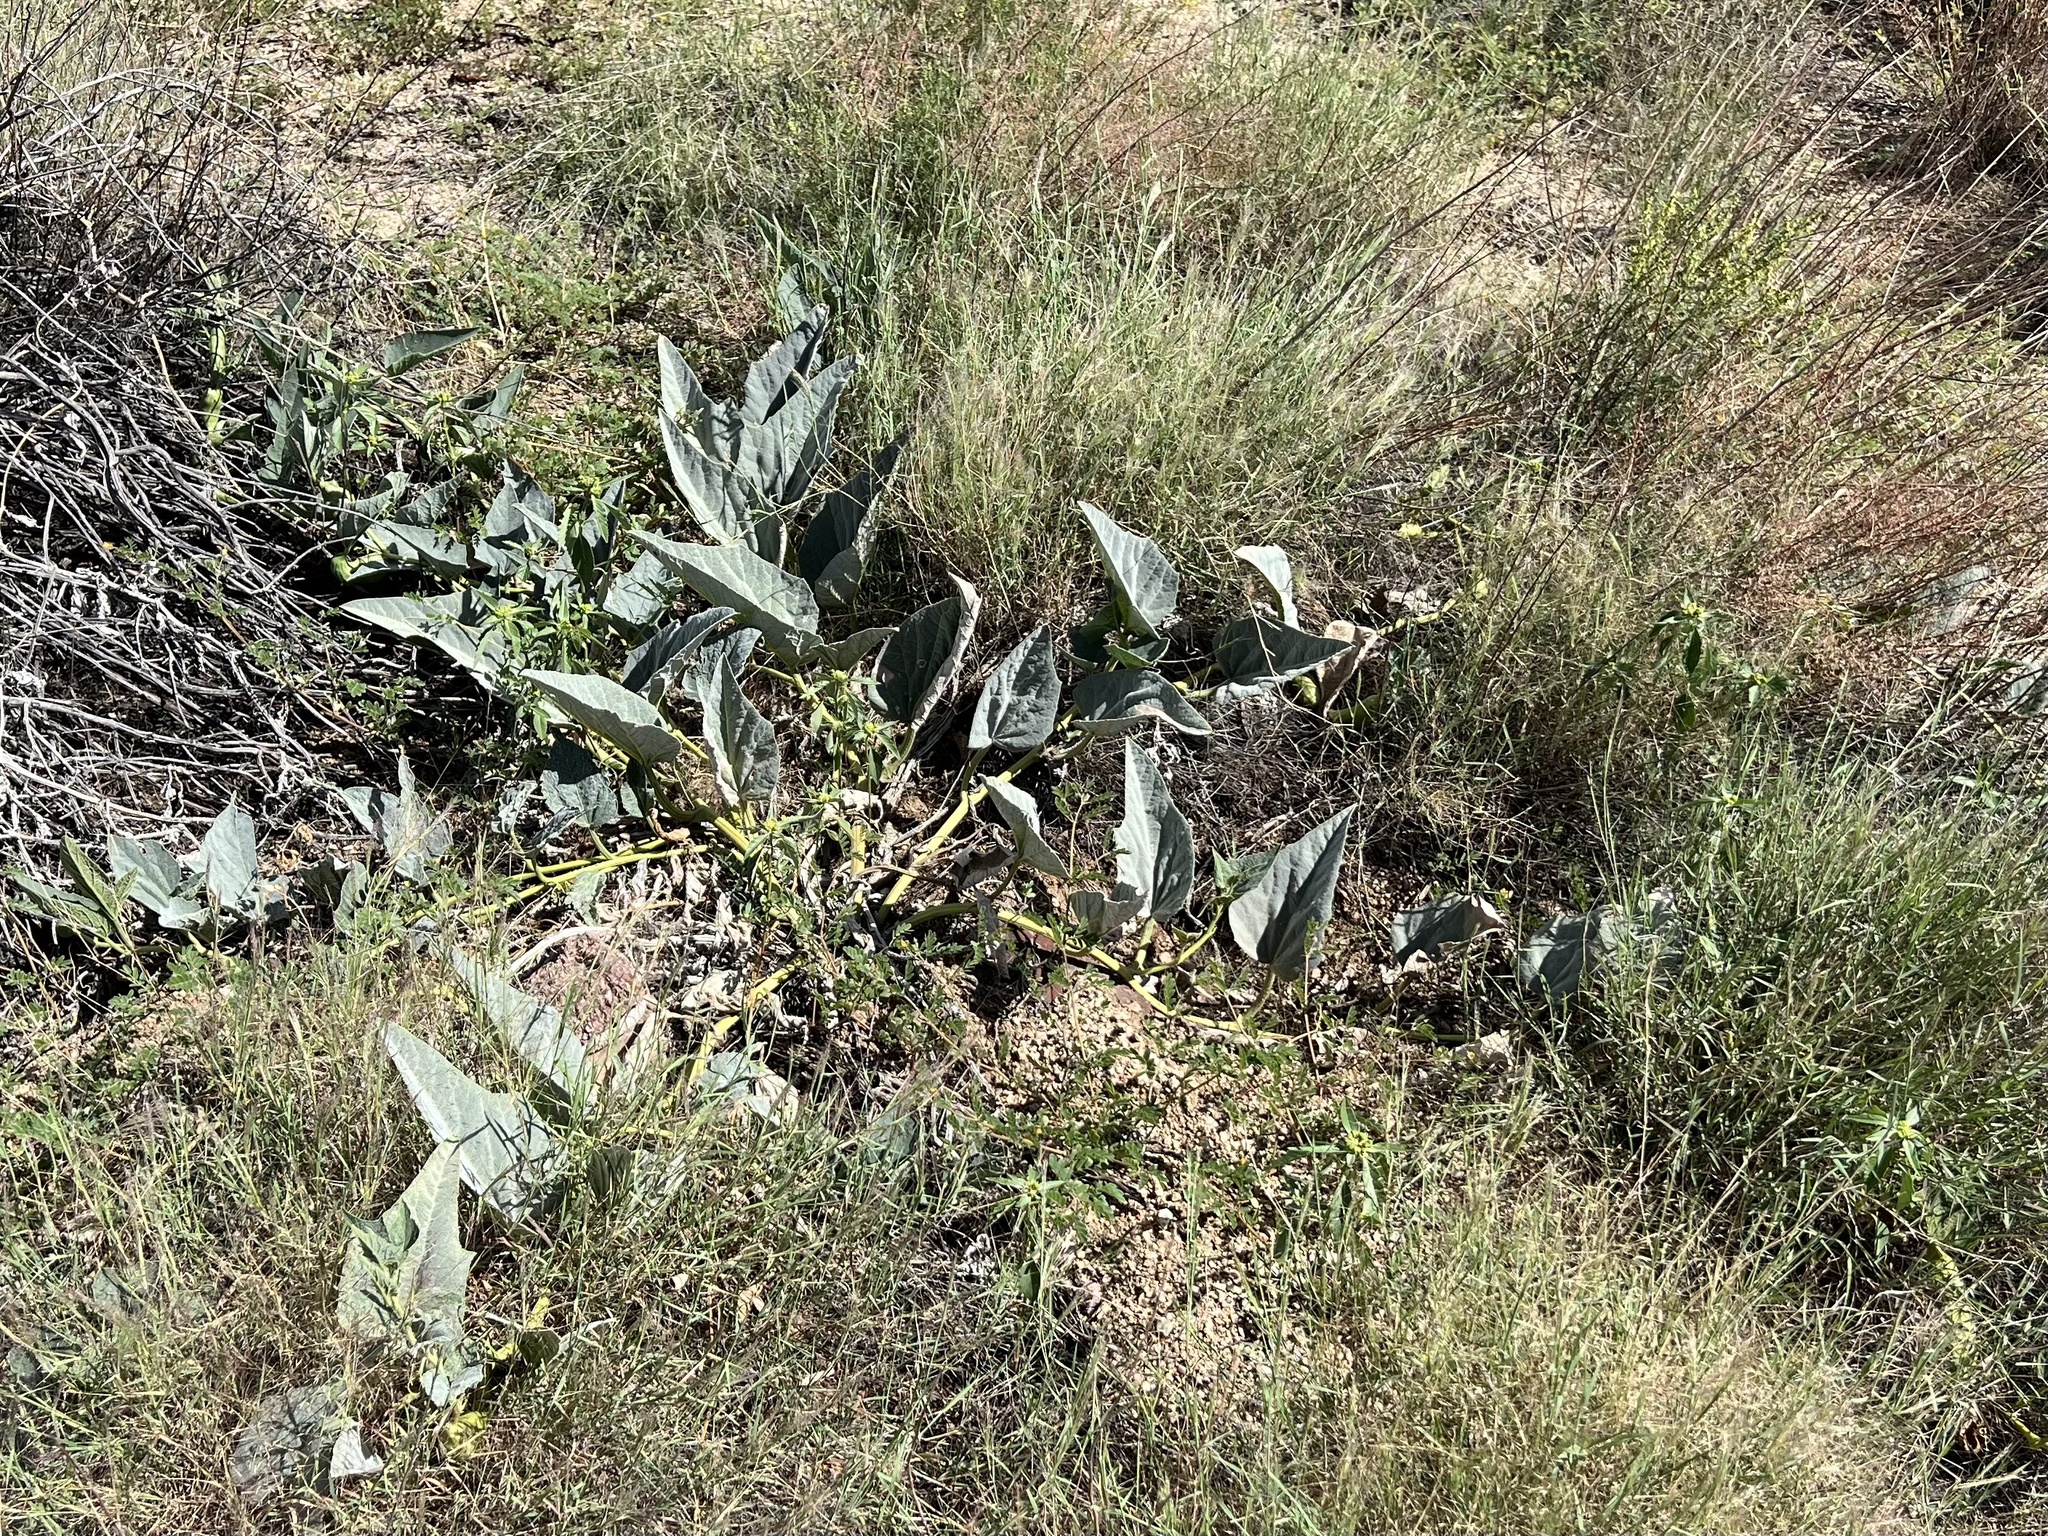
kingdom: Plantae
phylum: Tracheophyta
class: Magnoliopsida
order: Cucurbitales
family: Cucurbitaceae
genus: Cucurbita
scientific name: Cucurbita foetidissima
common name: Buffalo gourd
